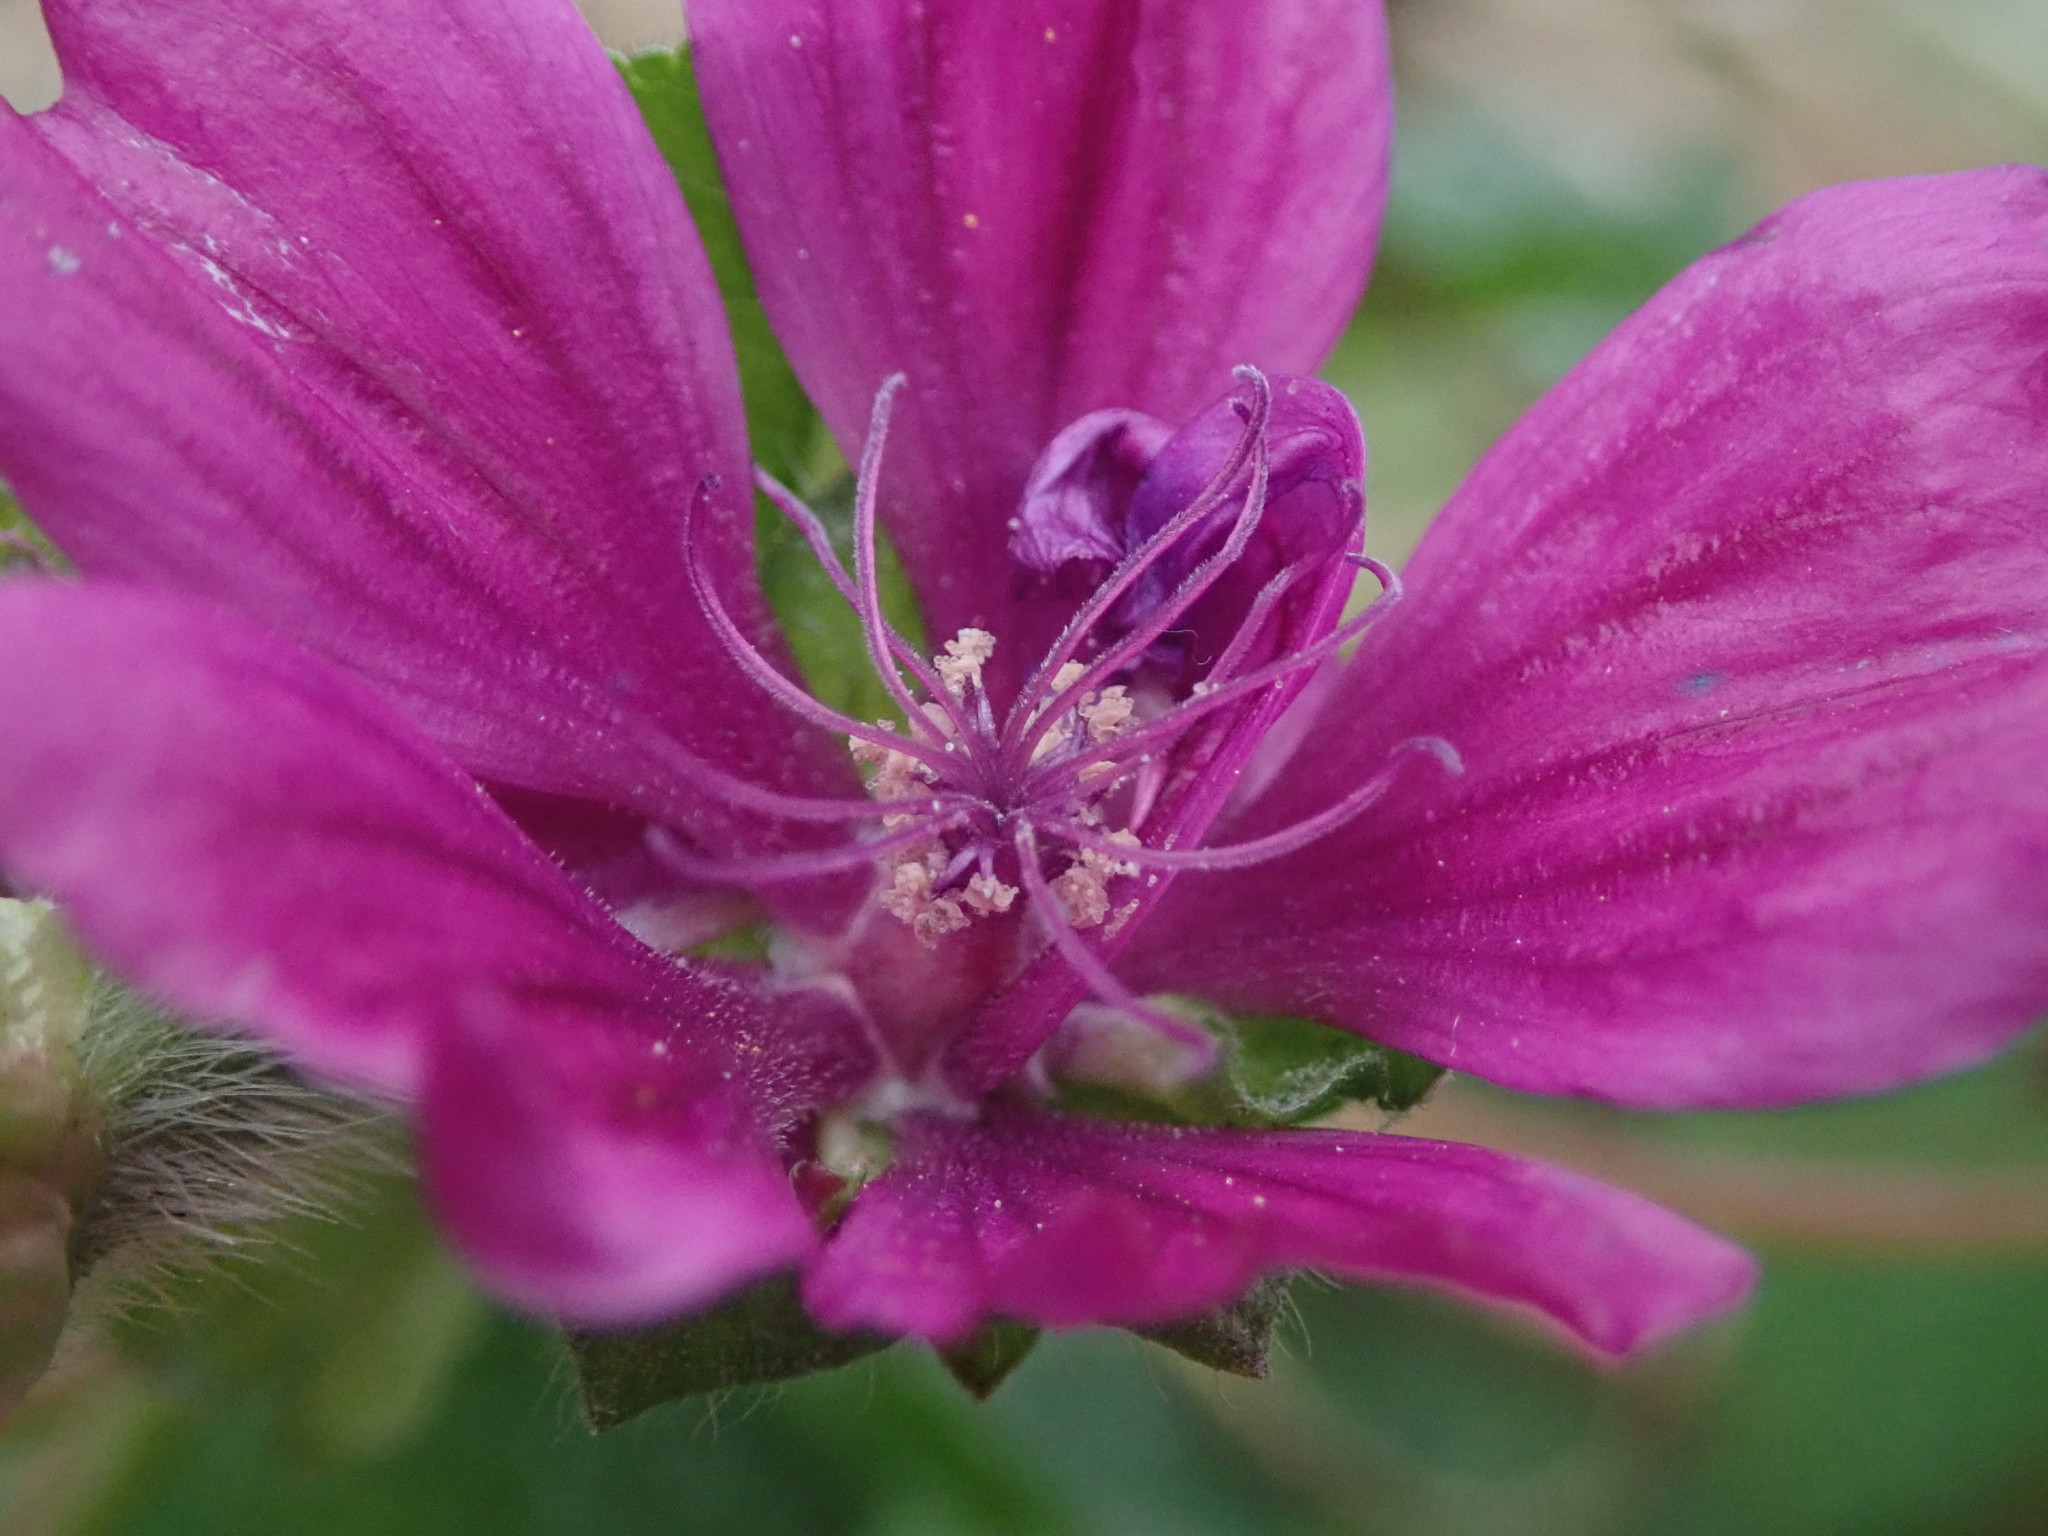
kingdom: Plantae
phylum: Tracheophyta
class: Magnoliopsida
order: Malvales
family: Malvaceae
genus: Malva
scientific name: Malva sylvestris
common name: Common mallow
